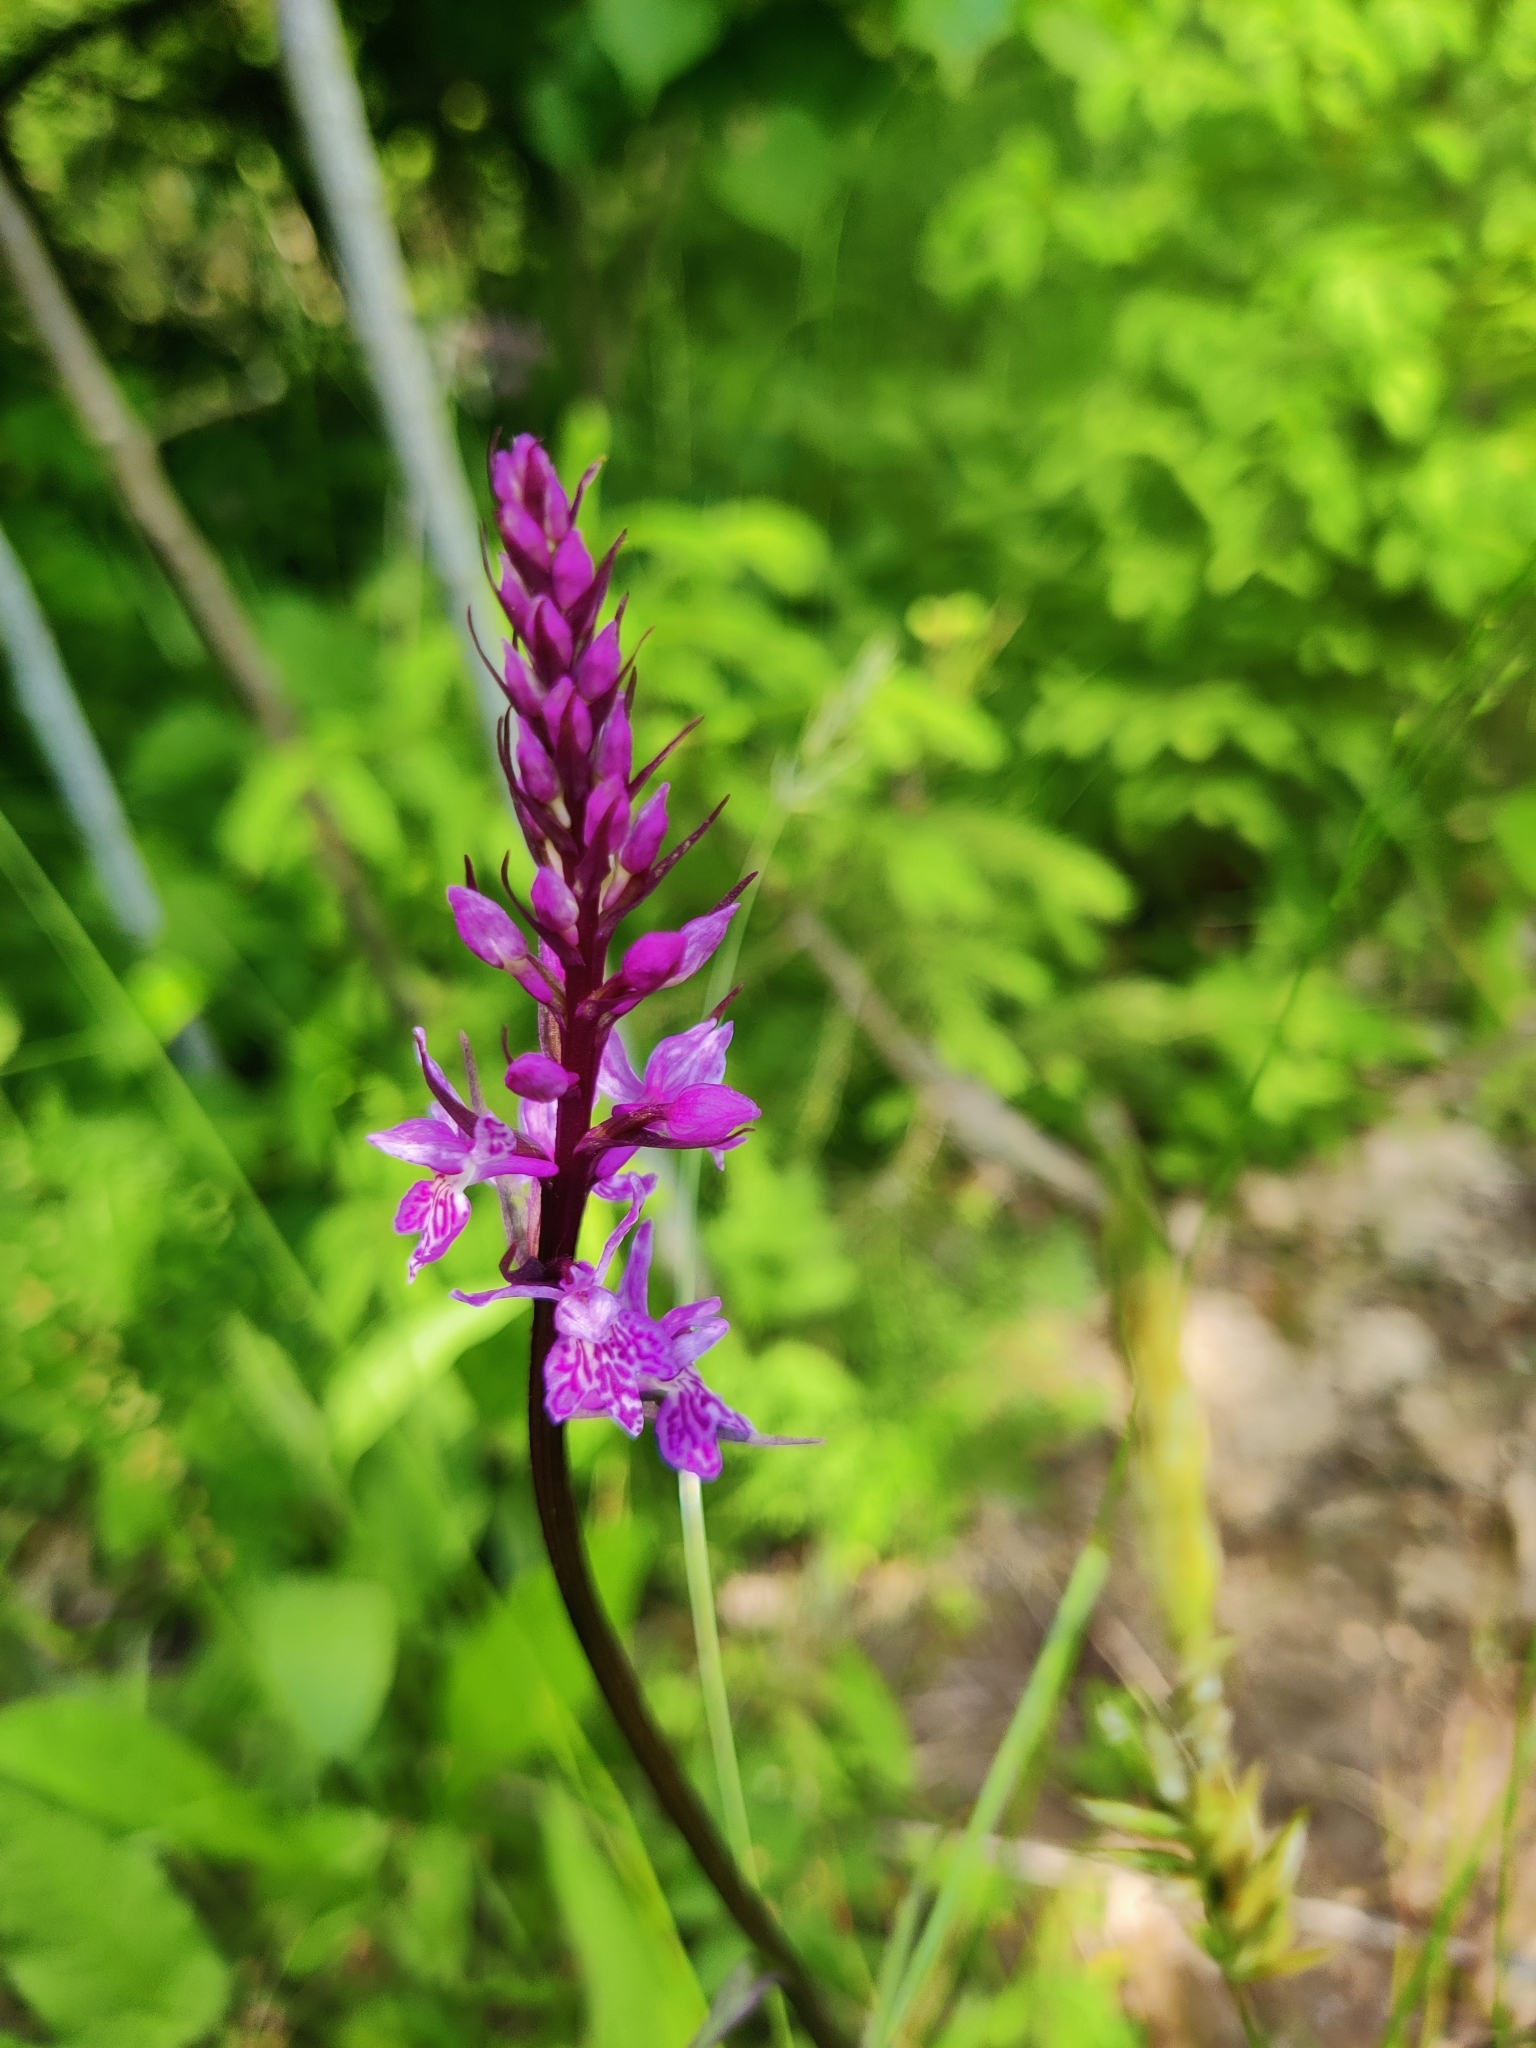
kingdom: Plantae
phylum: Tracheophyta
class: Liliopsida
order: Asparagales
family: Orchidaceae
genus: Dactylorhiza
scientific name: Dactylorhiza maculata
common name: Heath spotted-orchid
